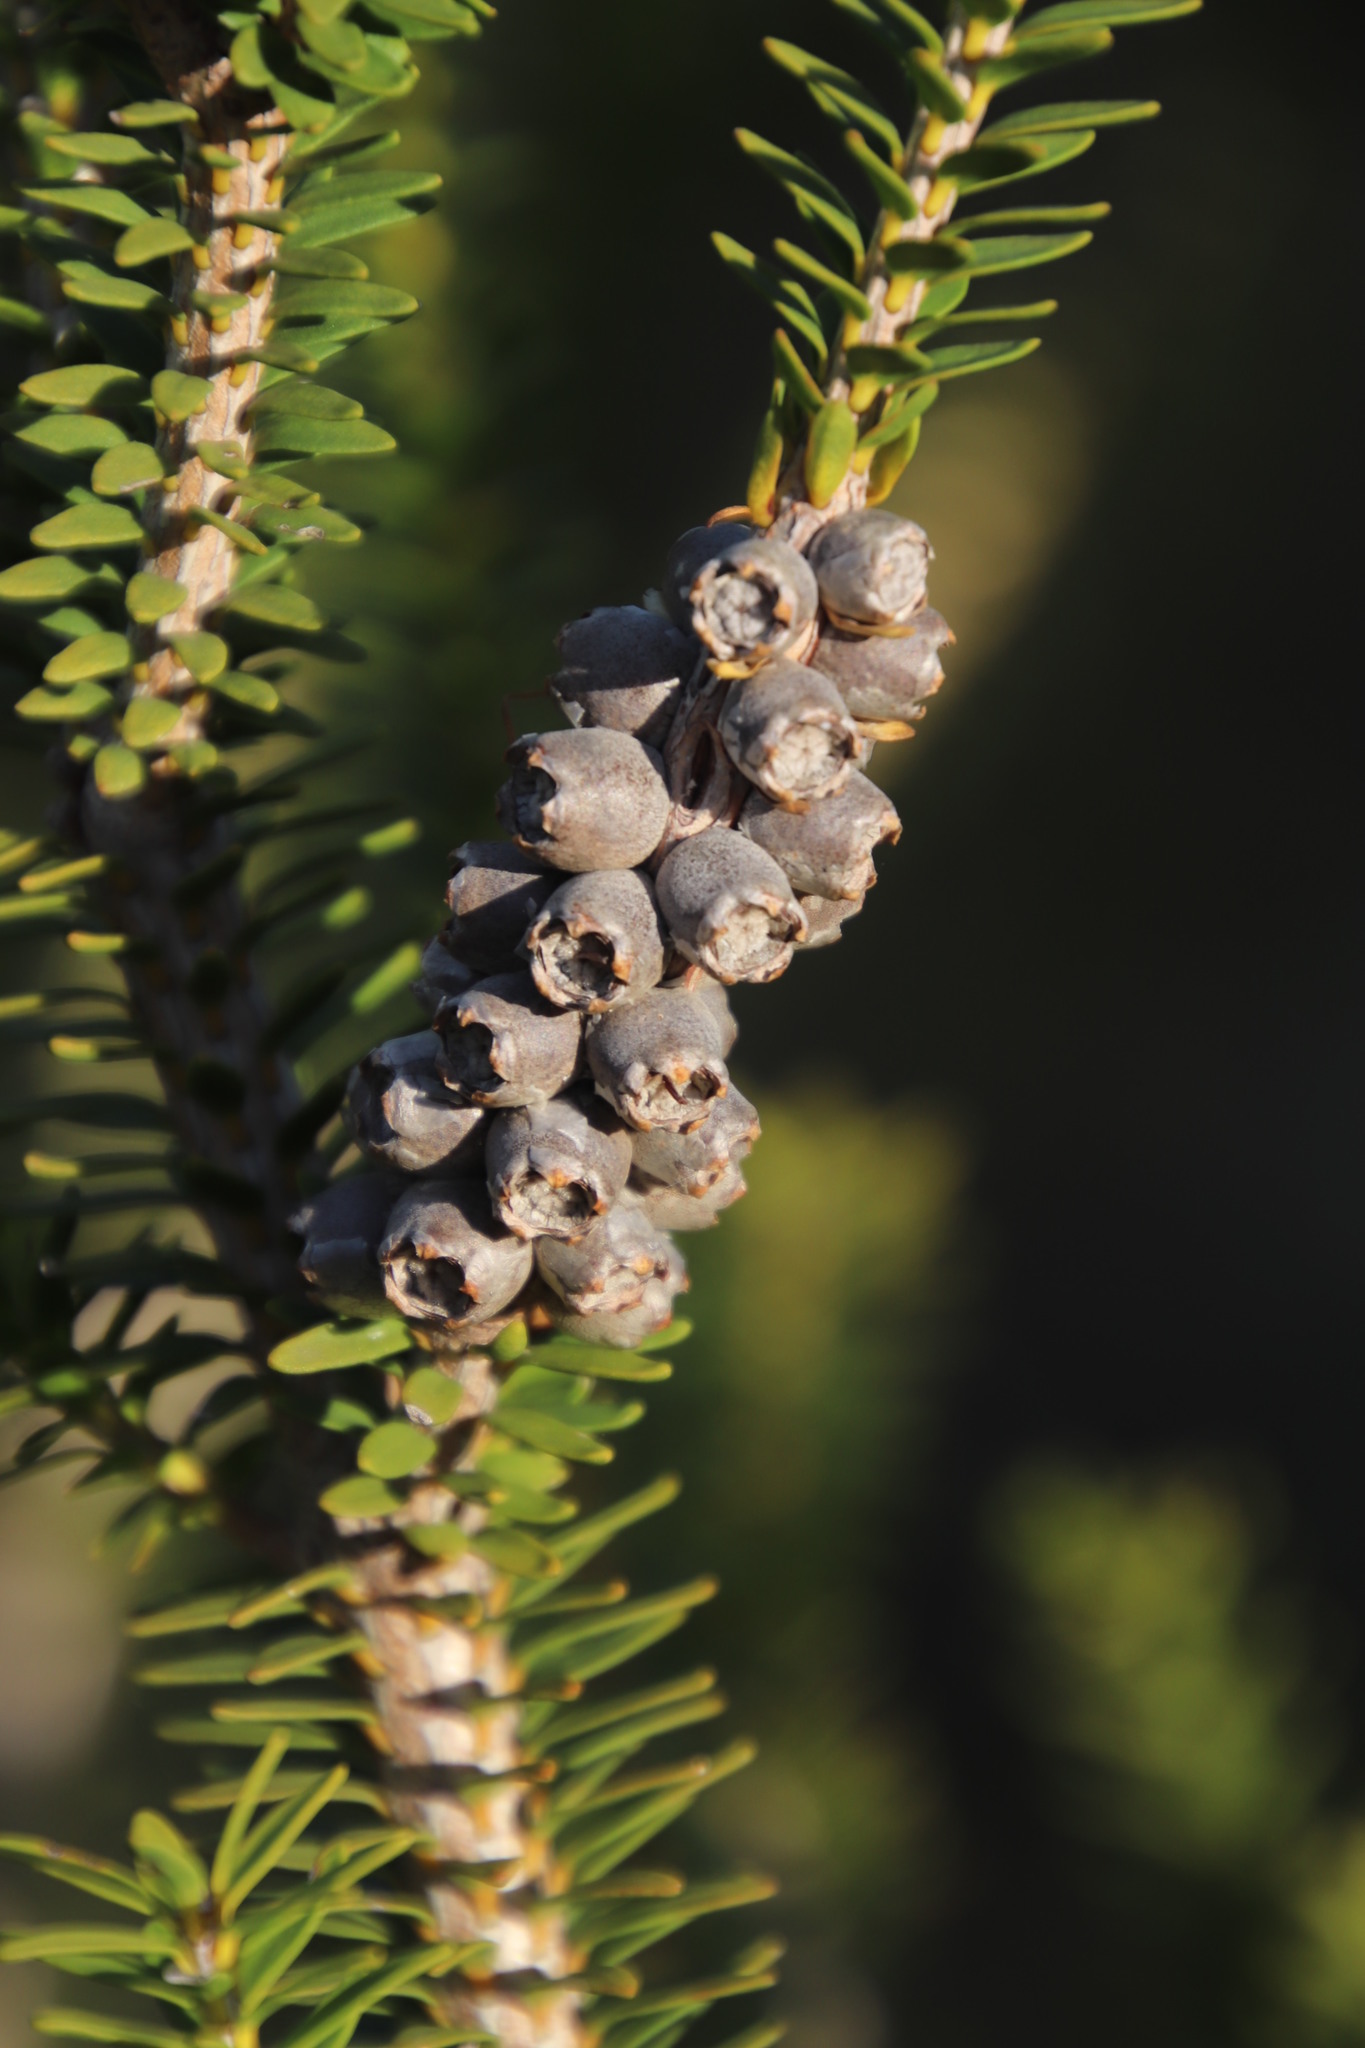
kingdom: Plantae
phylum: Tracheophyta
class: Magnoliopsida
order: Myrtales
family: Myrtaceae
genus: Melaleuca
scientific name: Melaleuca diosmifolia
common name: Green honey myrtle
